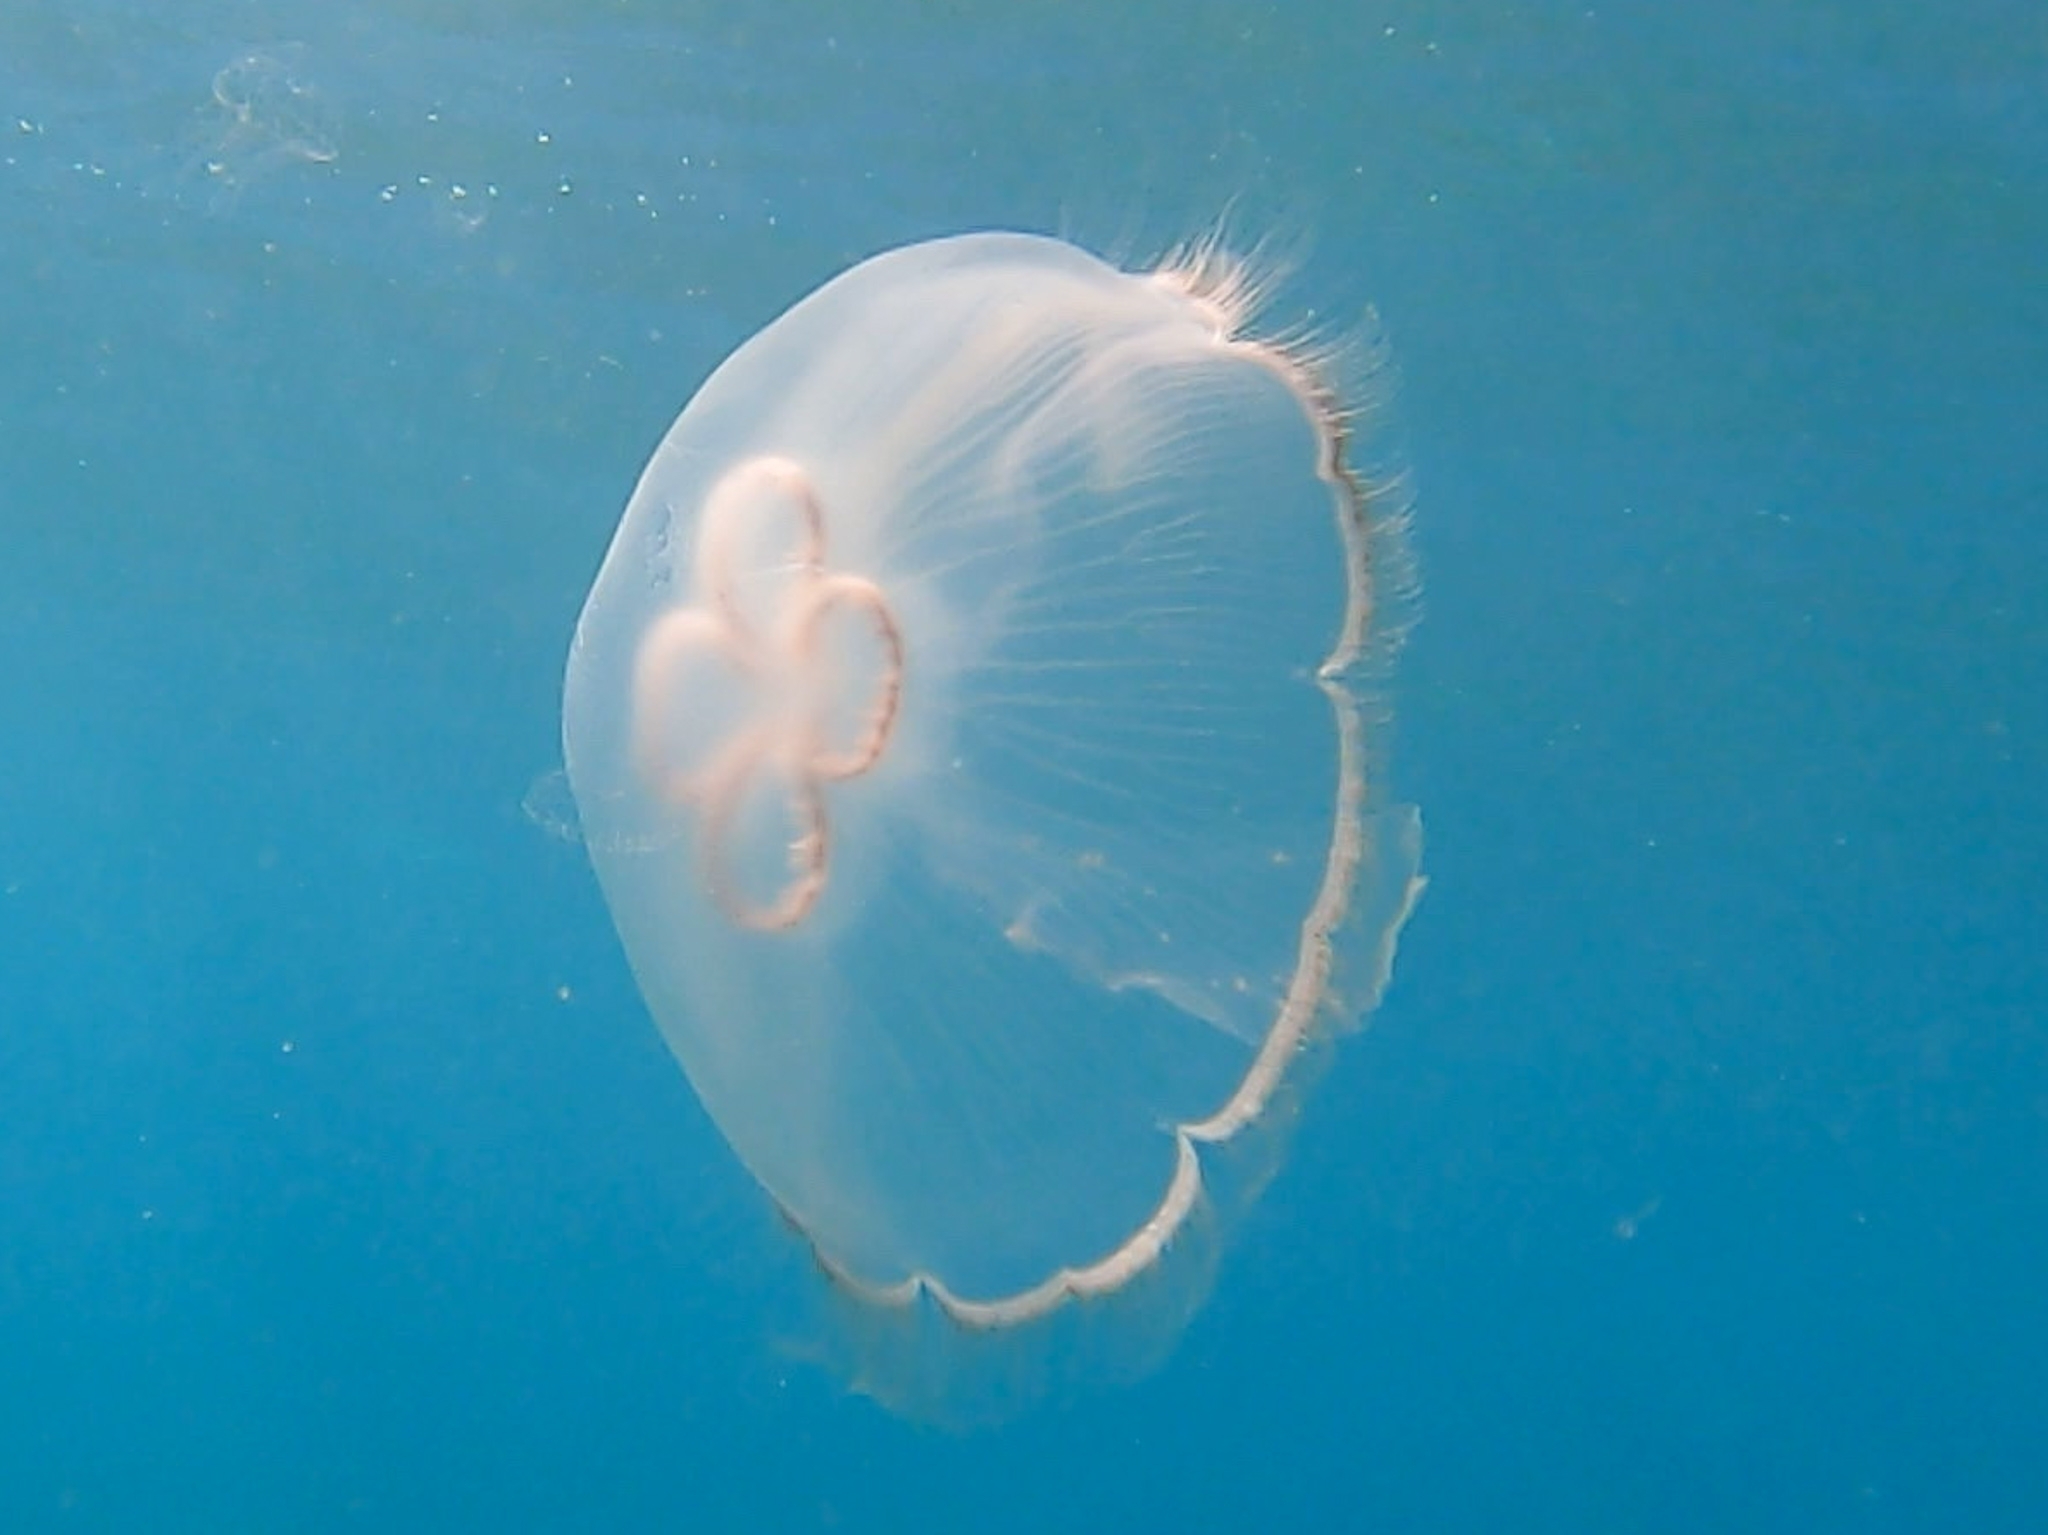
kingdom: Animalia
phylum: Cnidaria
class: Scyphozoa
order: Semaeostomeae
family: Ulmaridae
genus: Aurelia
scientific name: Aurelia marginalis
